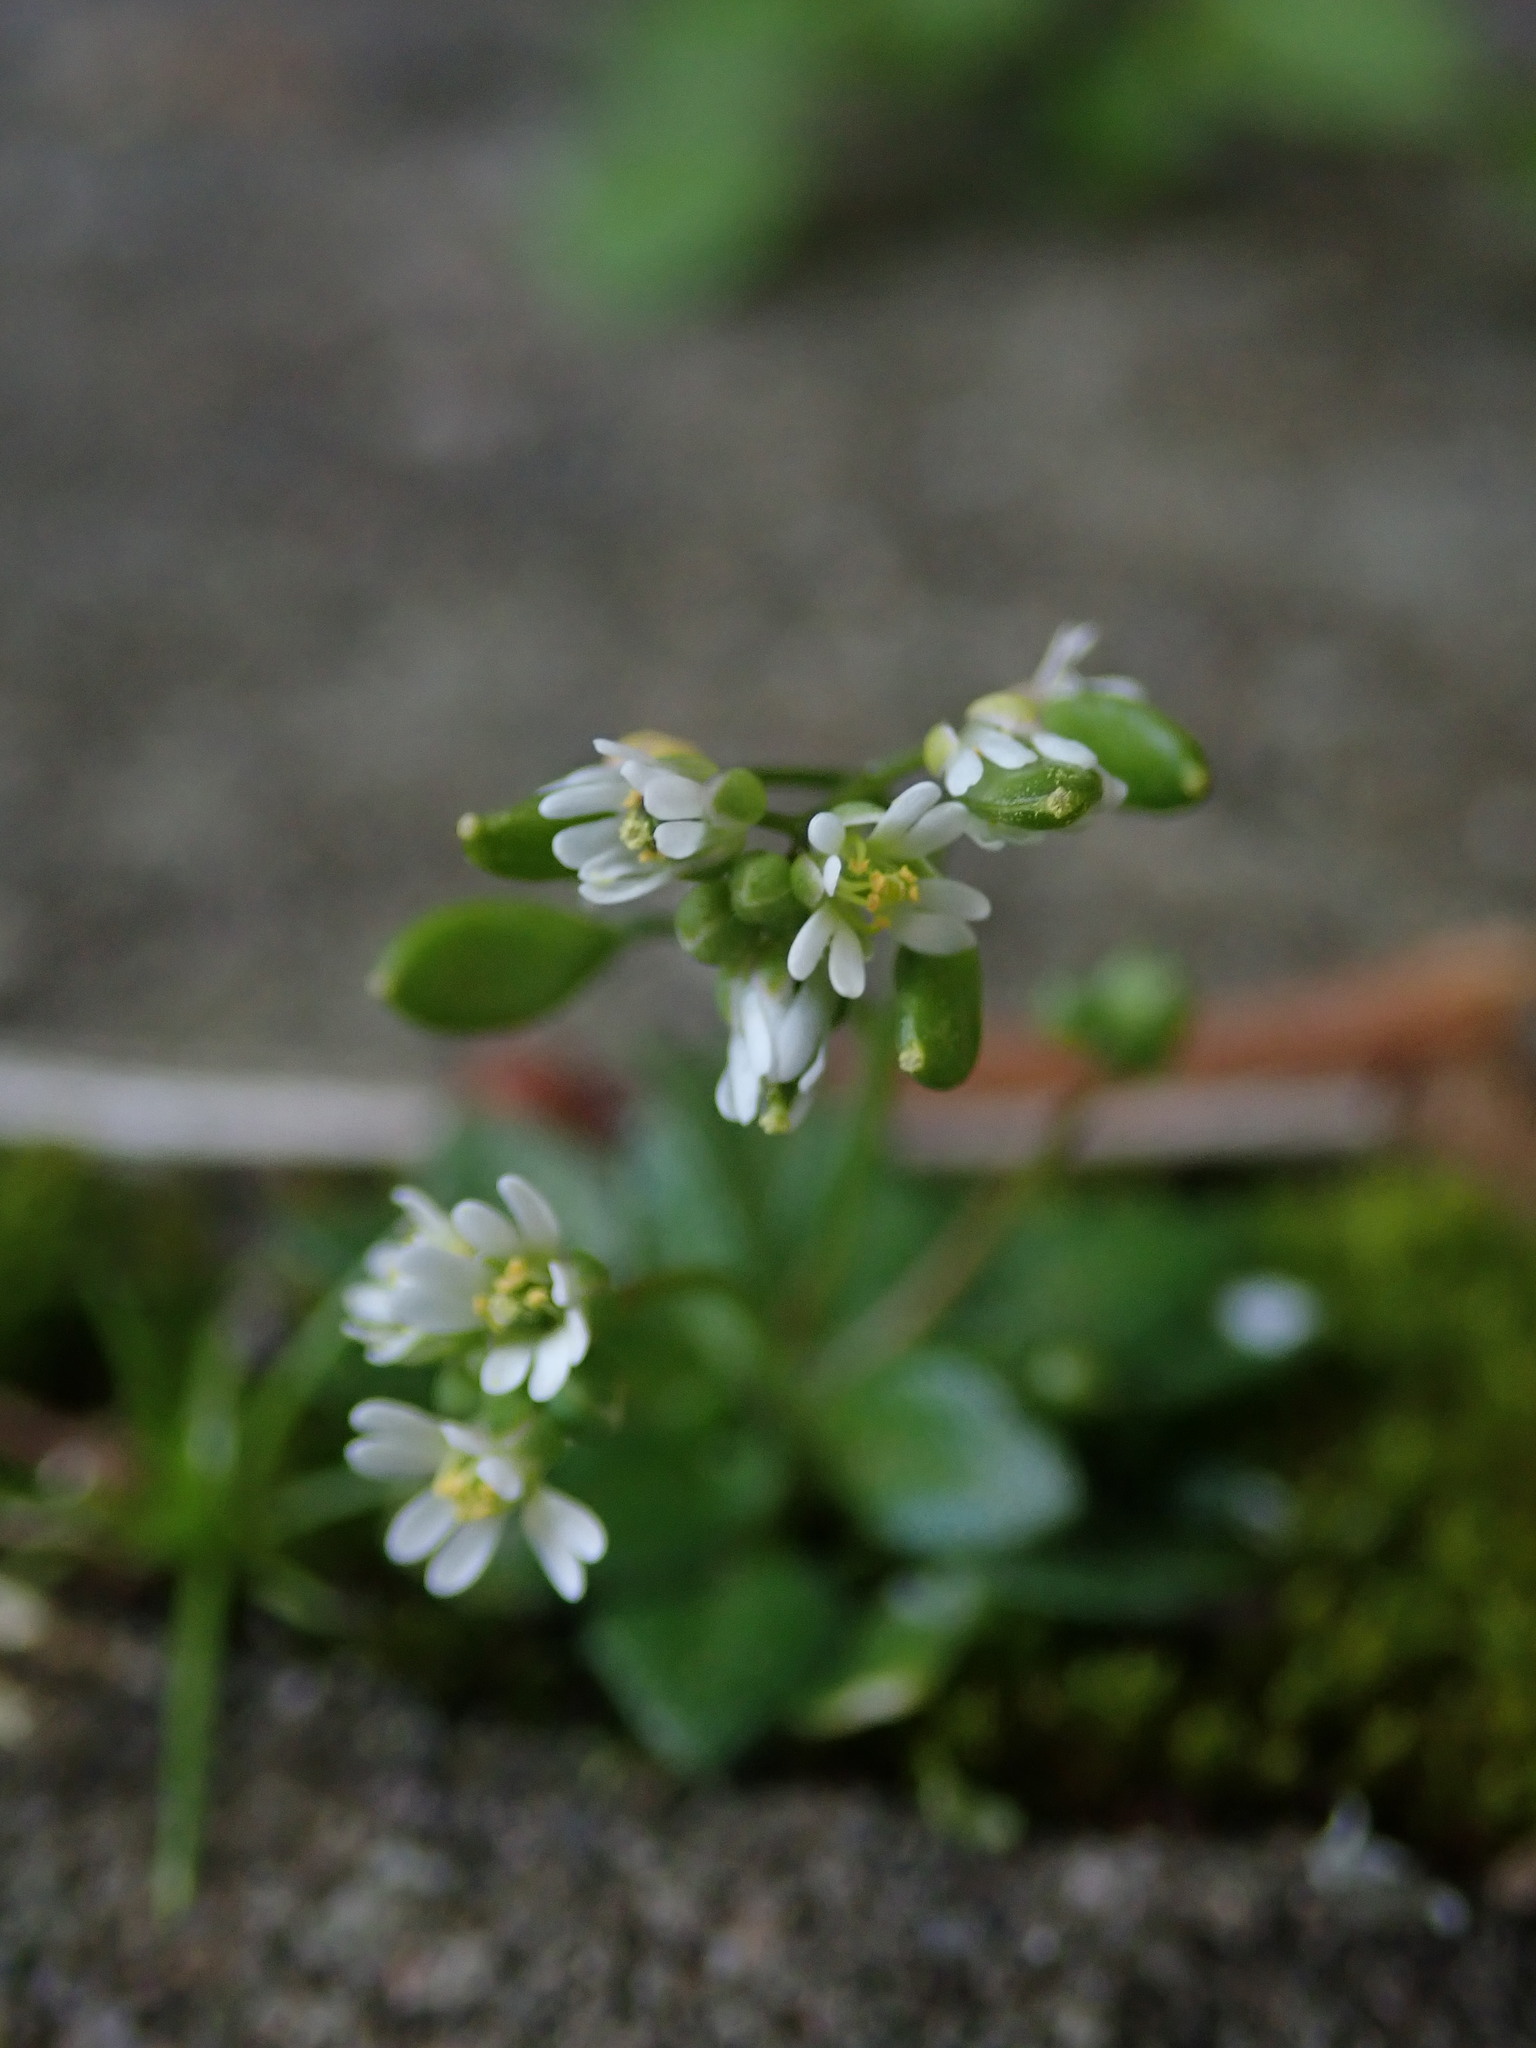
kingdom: Plantae
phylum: Tracheophyta
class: Magnoliopsida
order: Brassicales
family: Brassicaceae
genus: Draba
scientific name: Draba verna
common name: Spring draba
